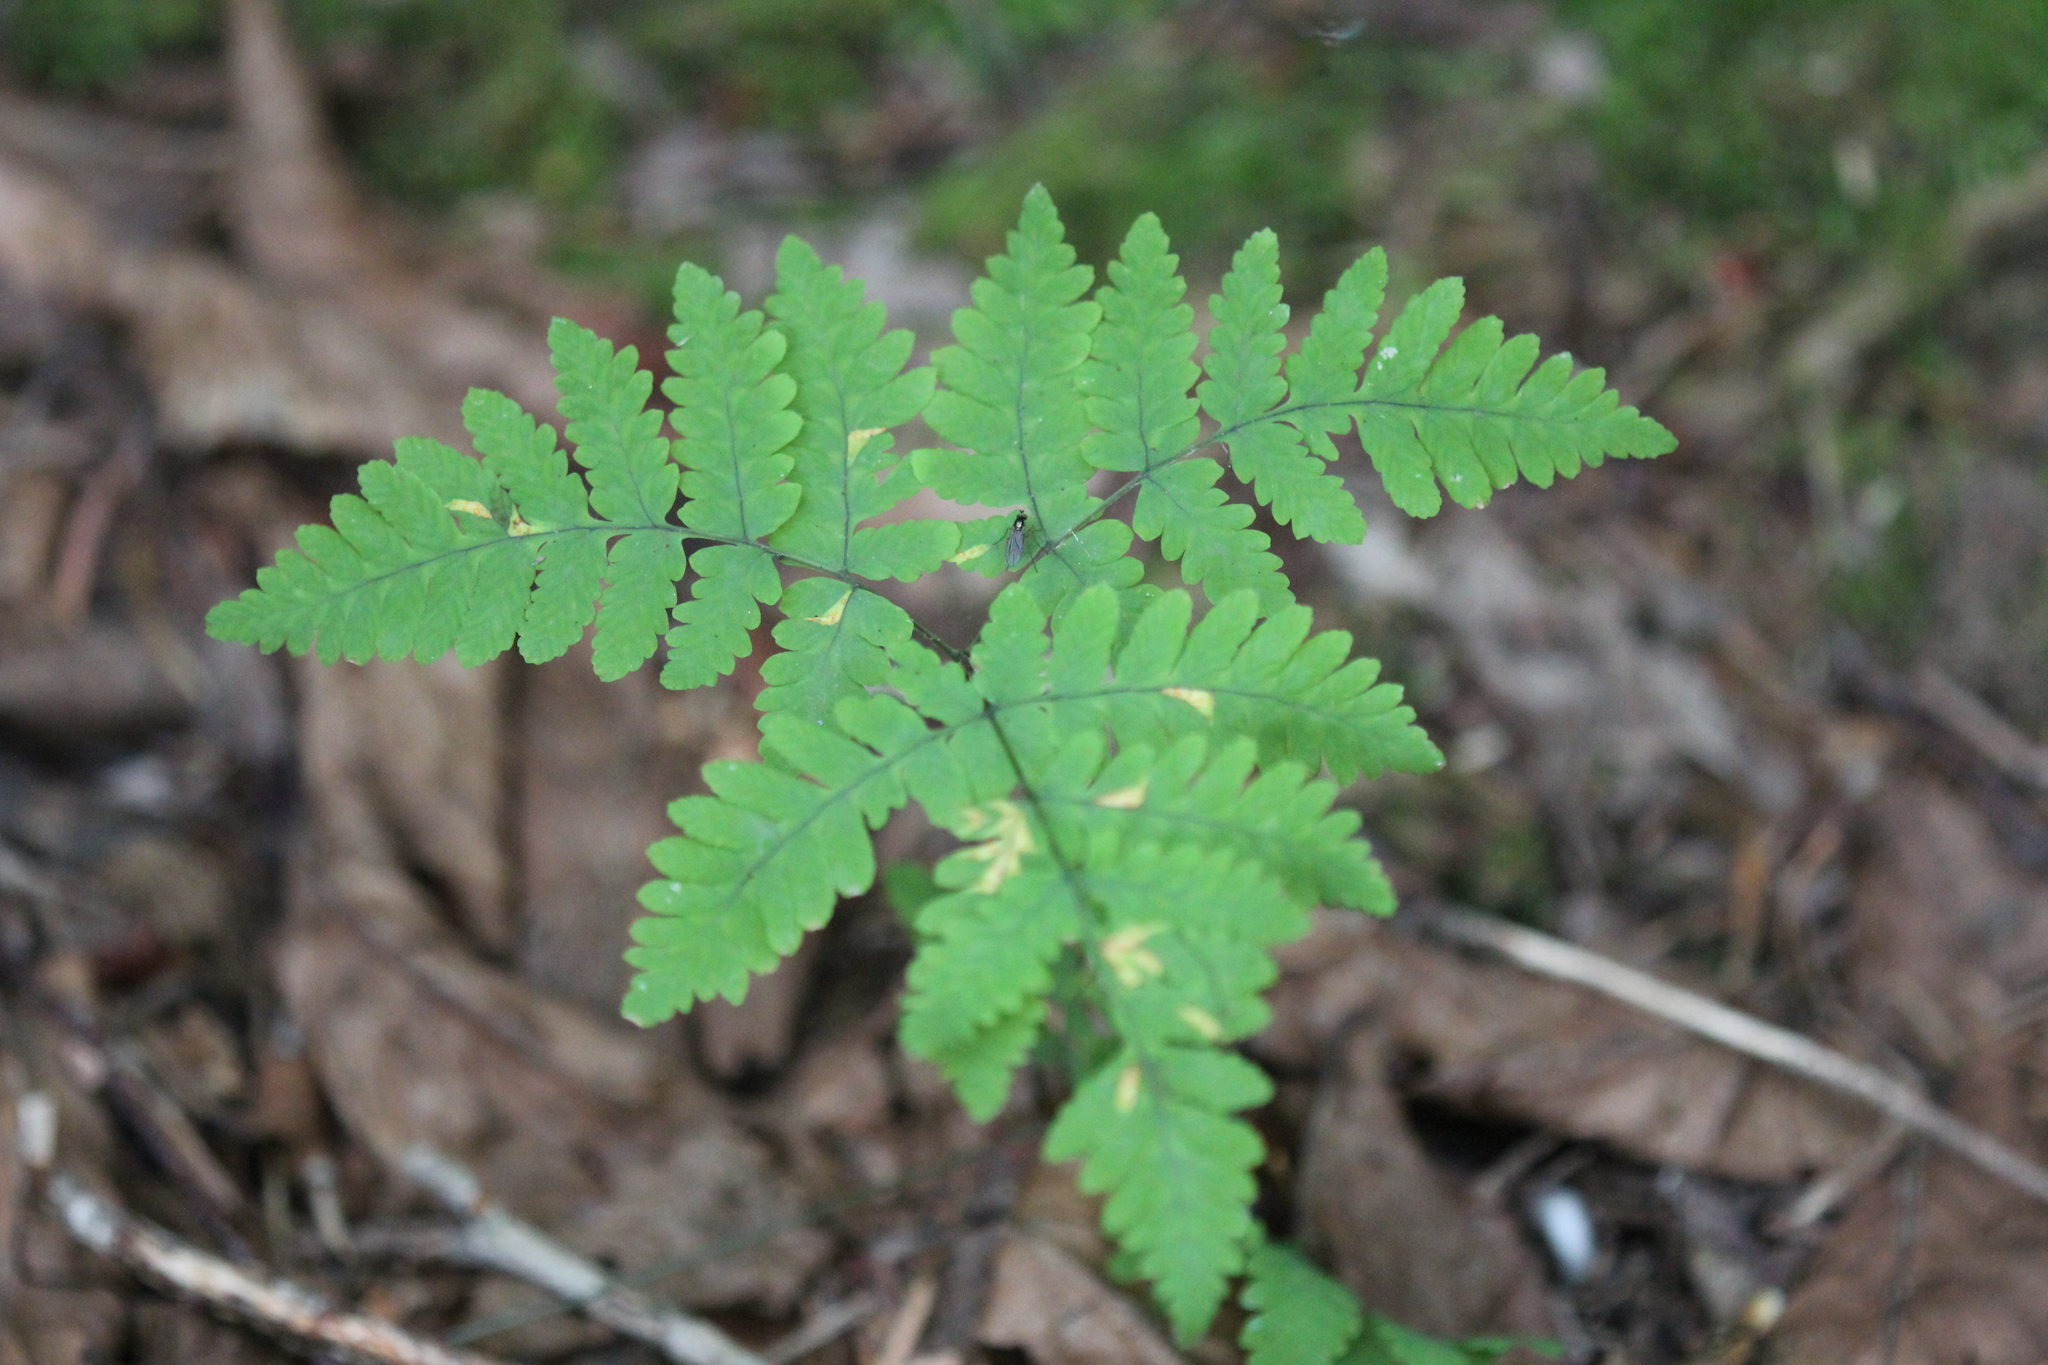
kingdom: Plantae
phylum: Tracheophyta
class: Polypodiopsida
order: Polypodiales
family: Cystopteridaceae
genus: Gymnocarpium
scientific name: Gymnocarpium dryopteris
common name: Oak fern
